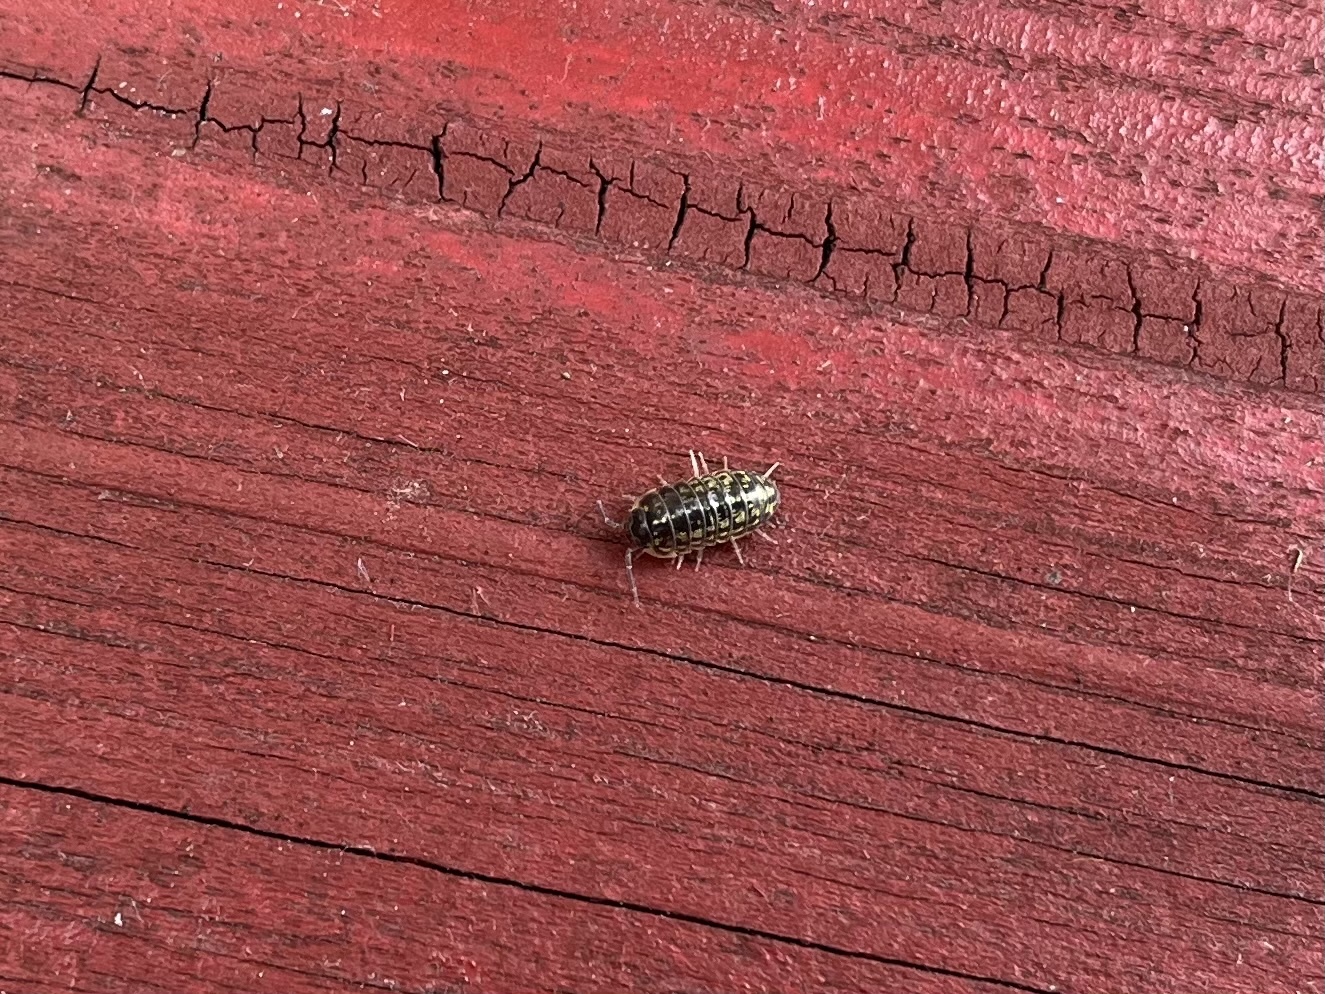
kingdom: Animalia
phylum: Arthropoda
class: Malacostraca
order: Isopoda
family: Armadillidiidae
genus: Armadillidium
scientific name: Armadillidium versicolor
